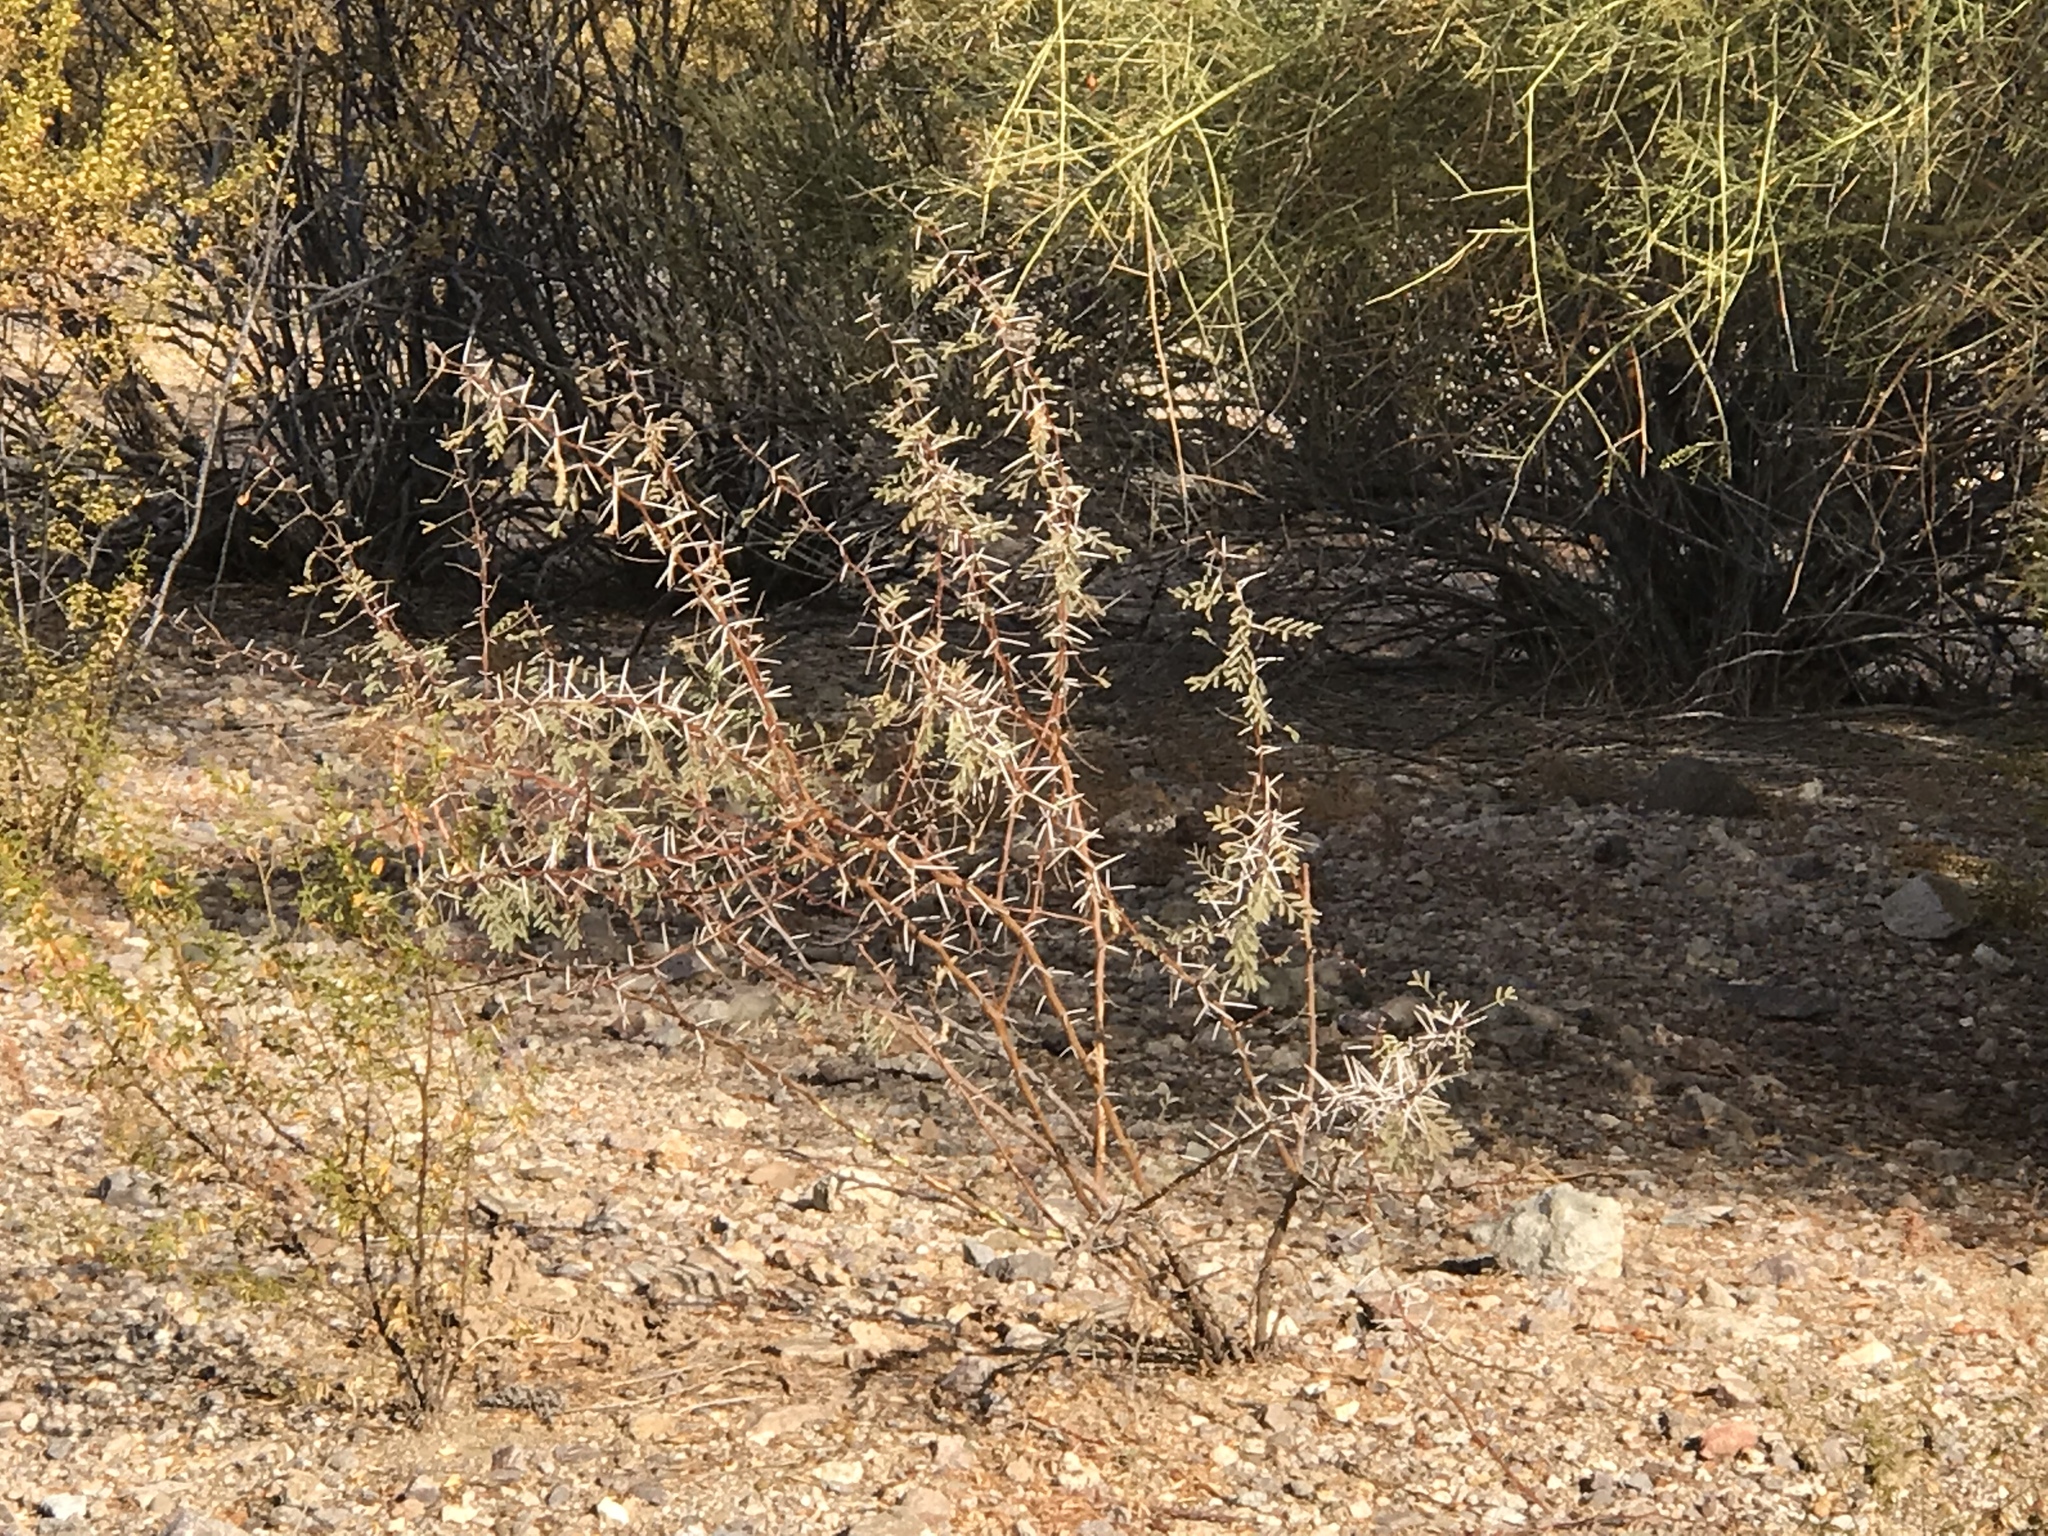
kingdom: Plantae
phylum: Tracheophyta
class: Magnoliopsida
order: Fabales
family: Fabaceae
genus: Vachellia
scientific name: Vachellia constricta
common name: Mescat acacia
